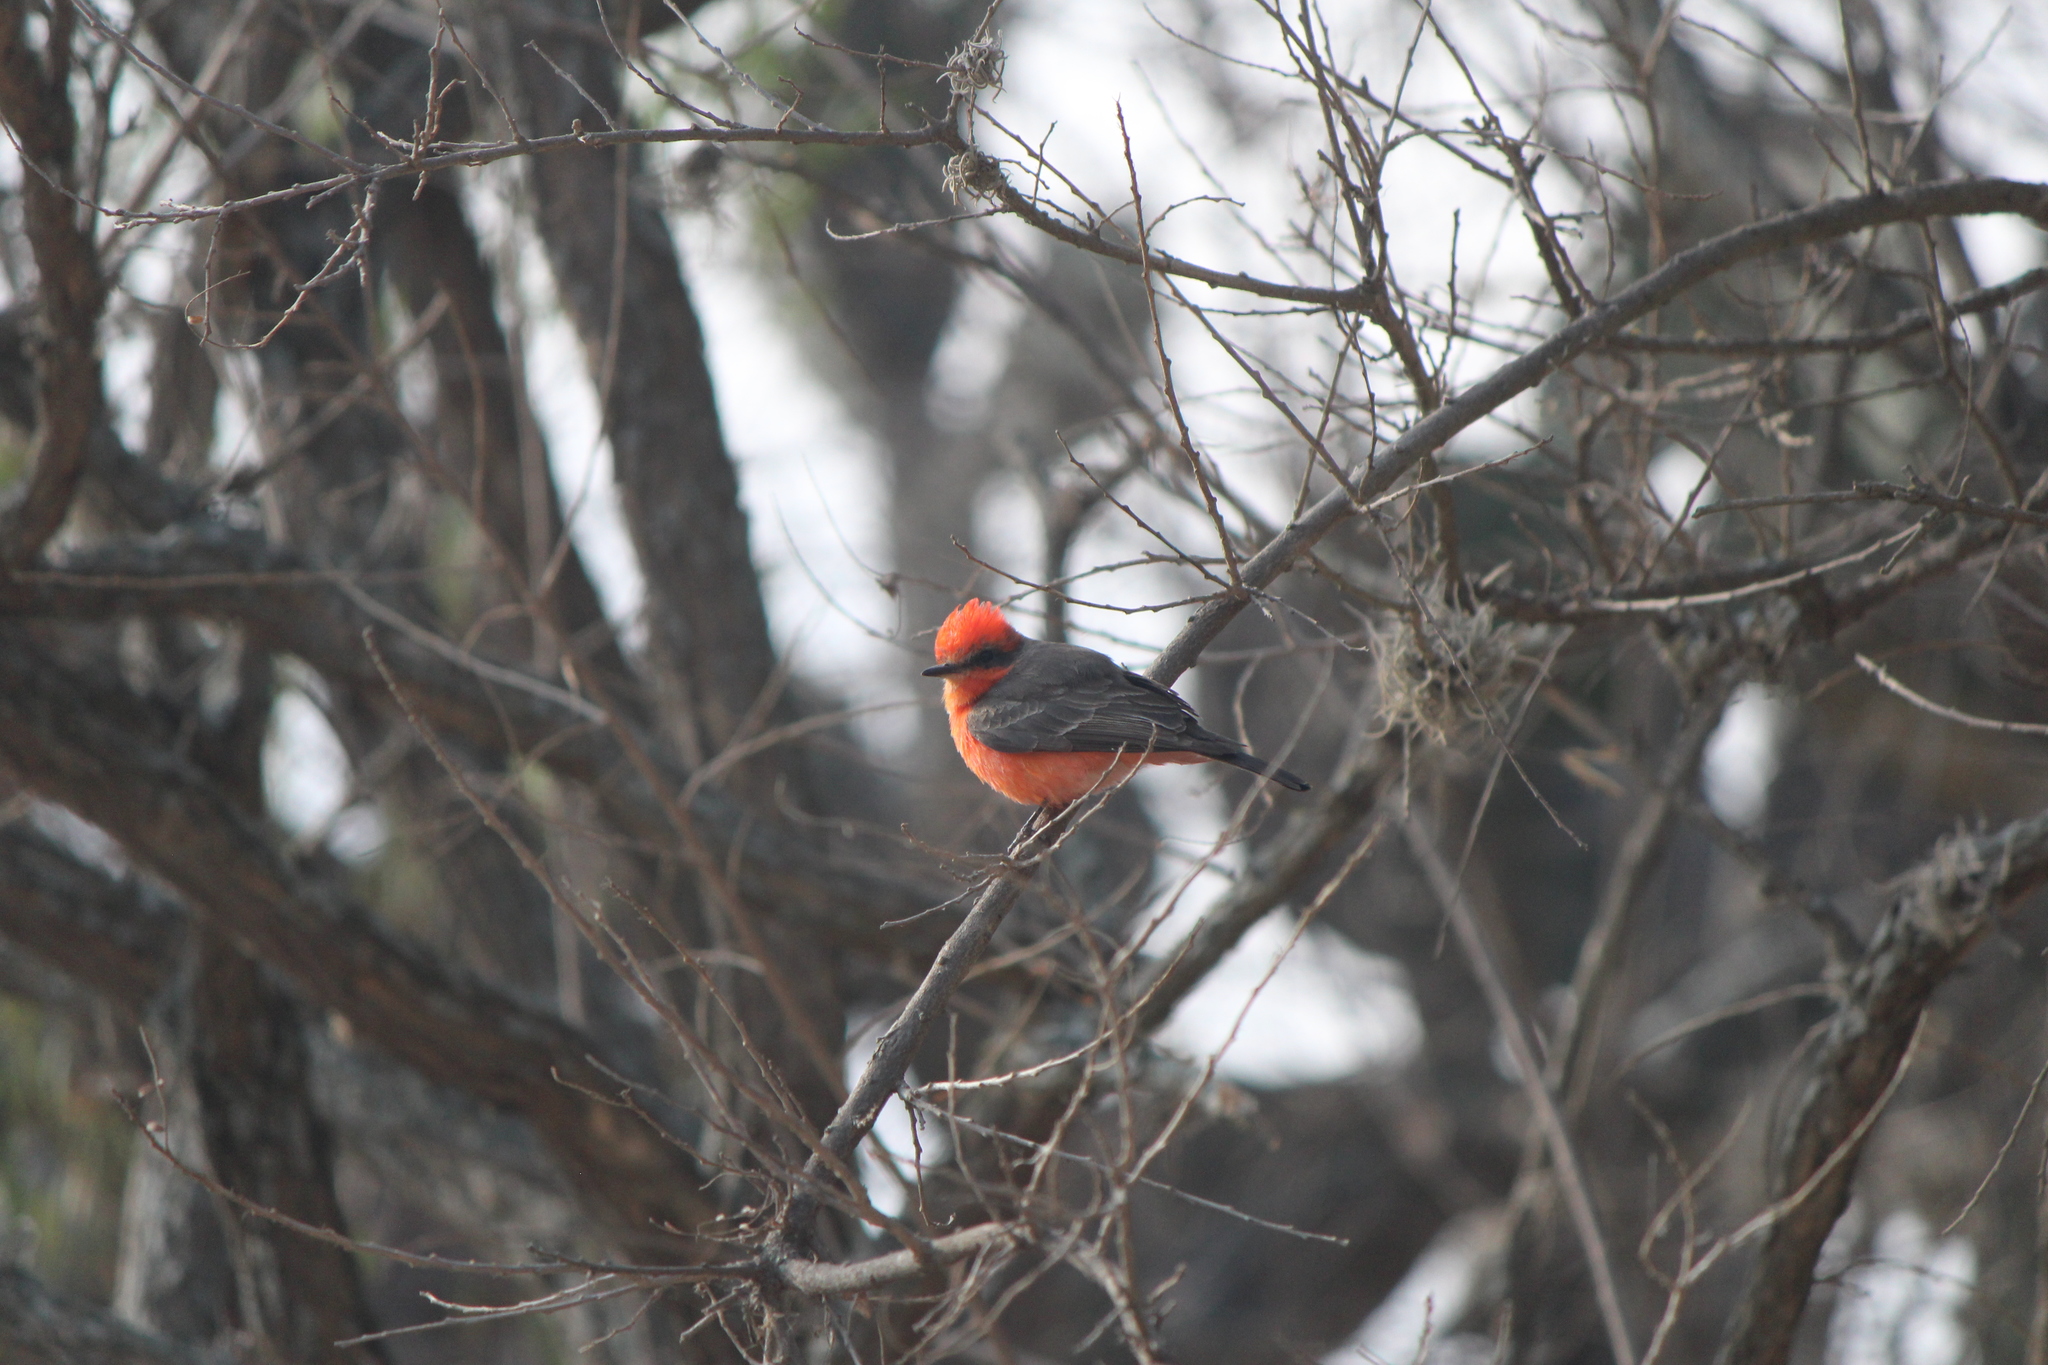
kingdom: Animalia
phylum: Chordata
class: Aves
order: Passeriformes
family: Tyrannidae
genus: Pyrocephalus
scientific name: Pyrocephalus rubinus
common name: Vermilion flycatcher
